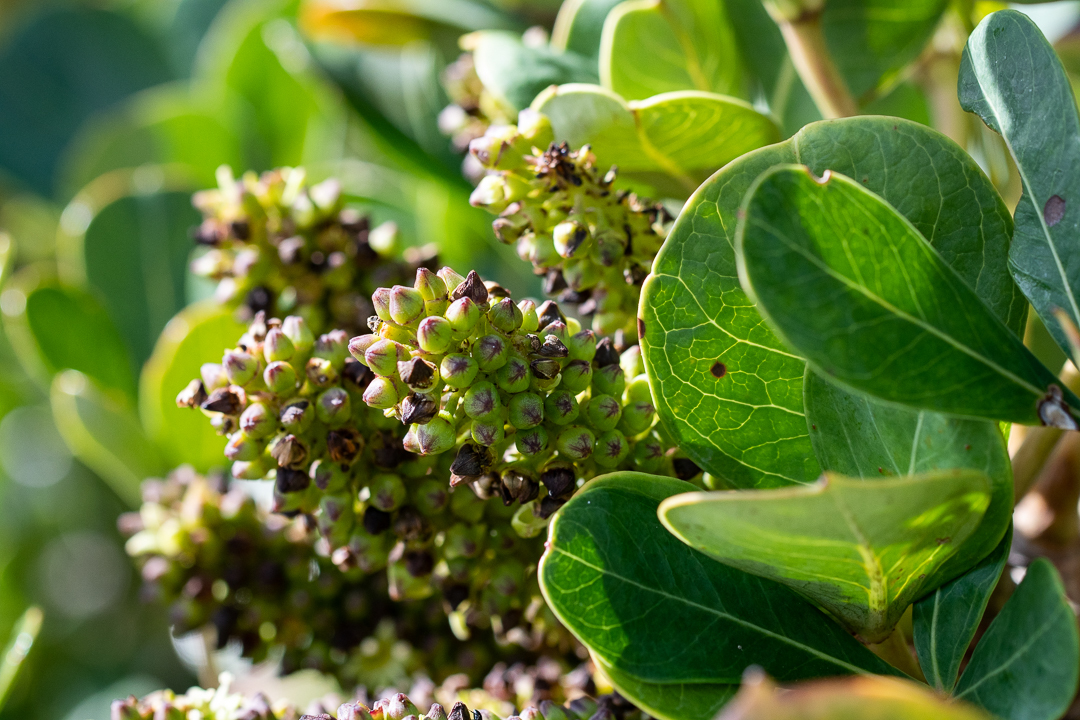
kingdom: Plantae
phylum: Tracheophyta
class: Magnoliopsida
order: Apiales
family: Araliaceae
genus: Cussonia
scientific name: Cussonia thyrsiflora
